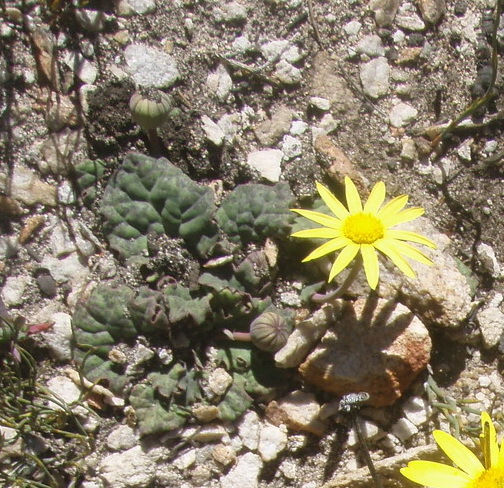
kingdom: Plantae
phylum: Tracheophyta
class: Magnoliopsida
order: Asterales
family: Asteraceae
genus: Othonna
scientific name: Othonna oleracea
